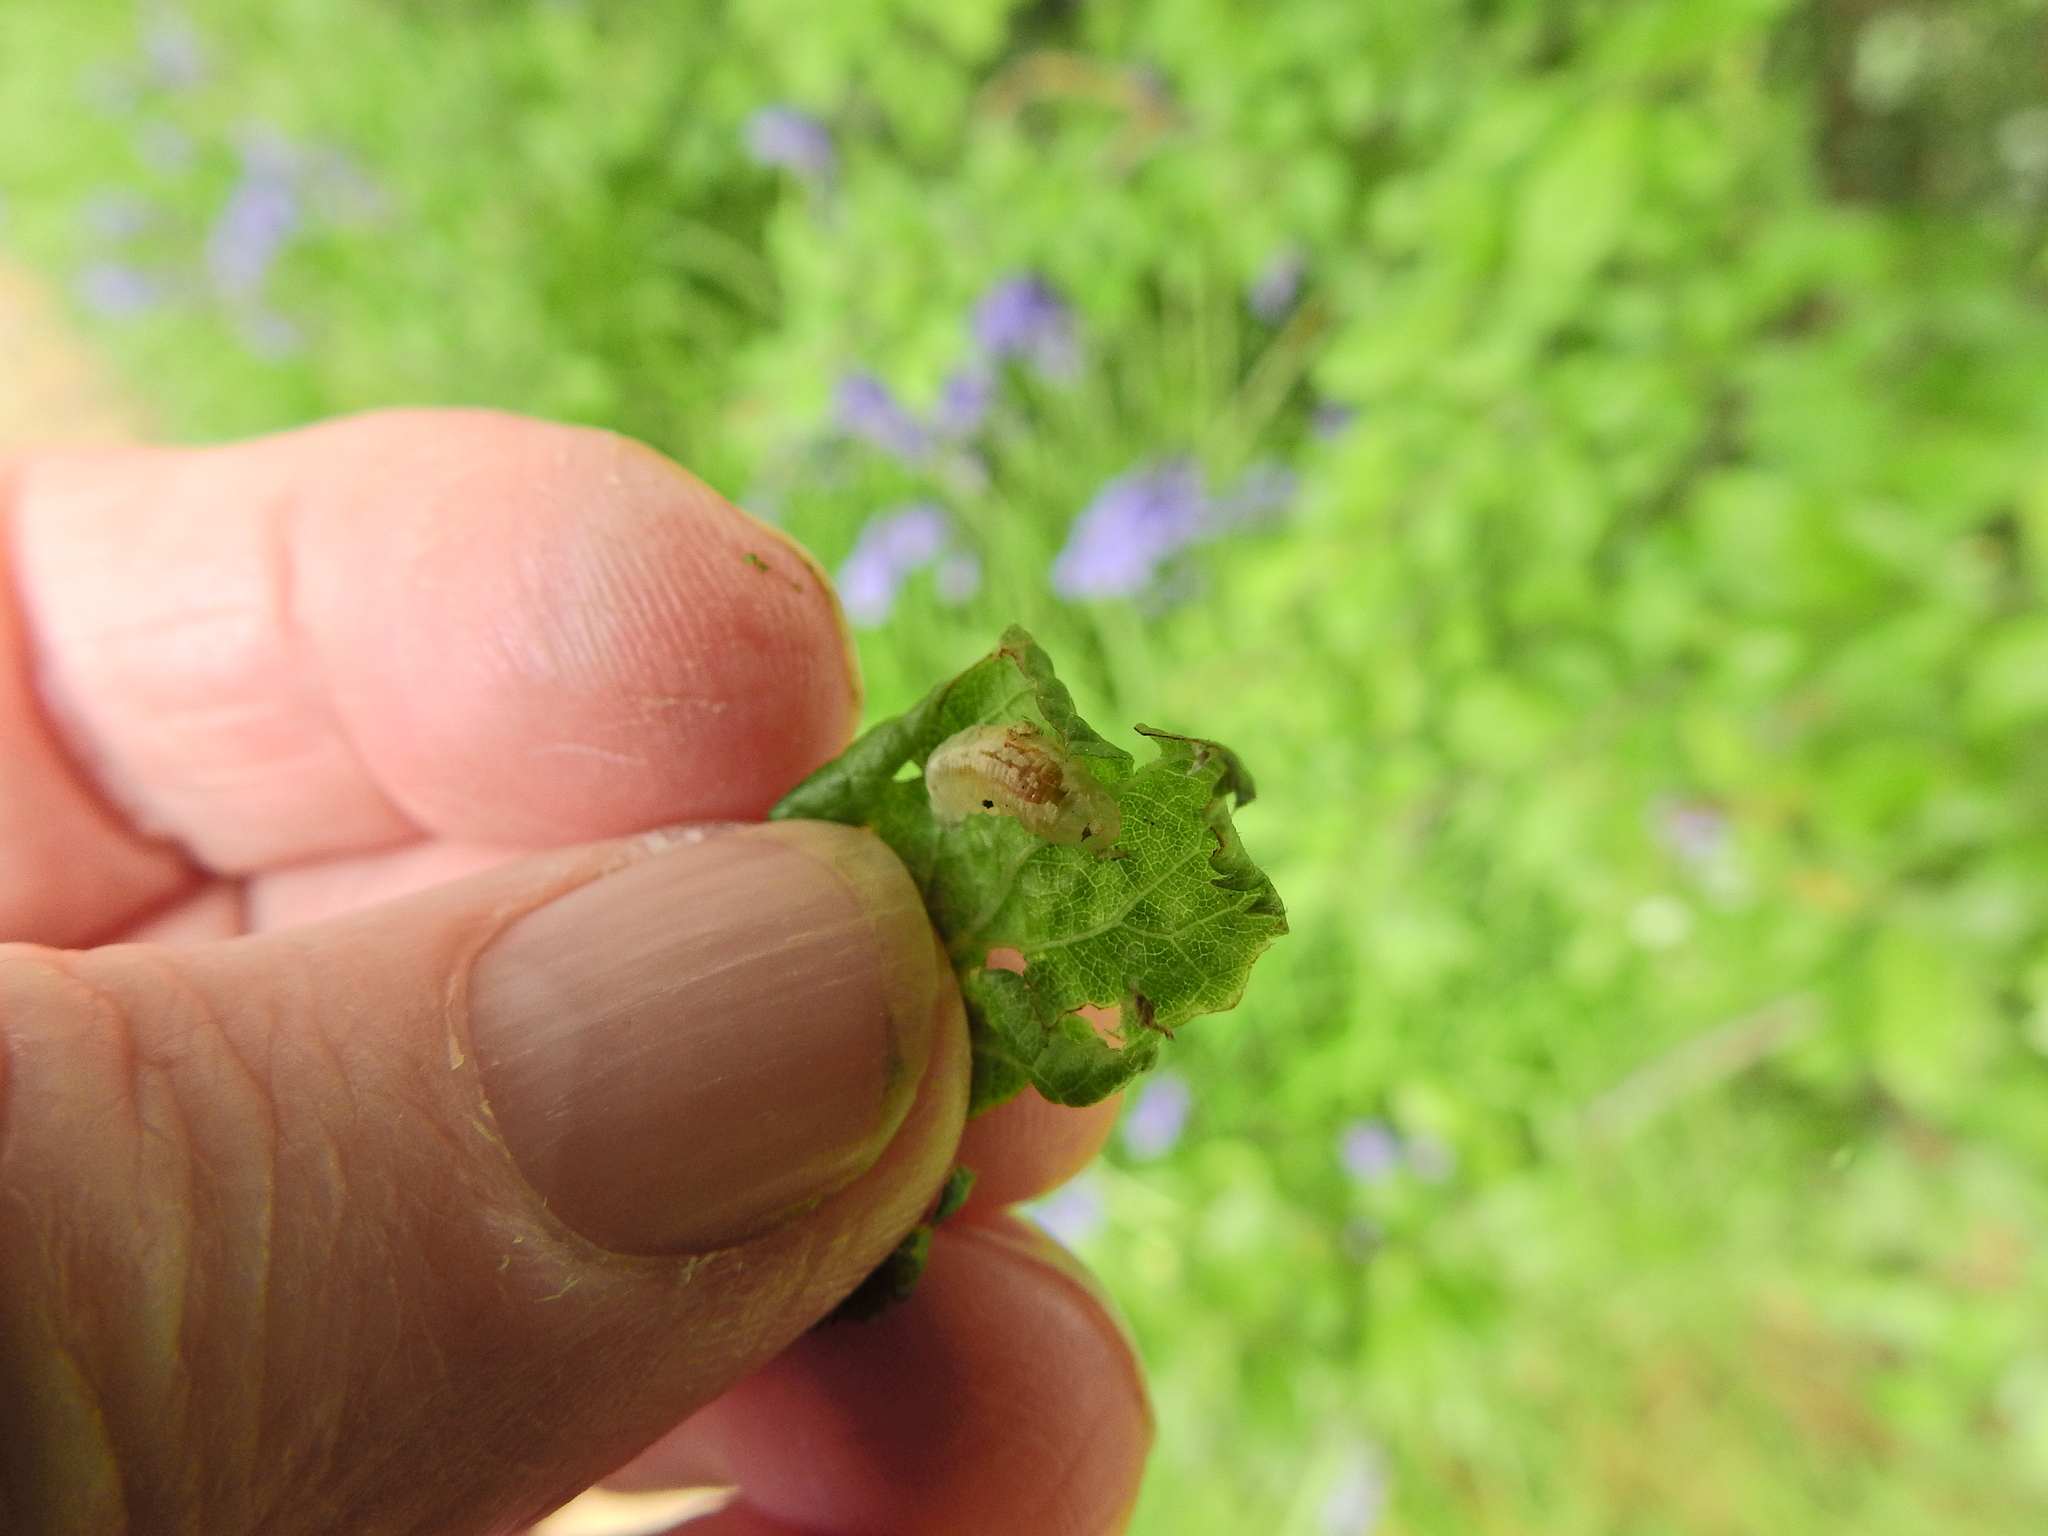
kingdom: Animalia
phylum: Arthropoda
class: Insecta
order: Diptera
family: Syrphidae
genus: Episyrphus
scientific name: Episyrphus balteatus
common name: Marmalade hoverfly
